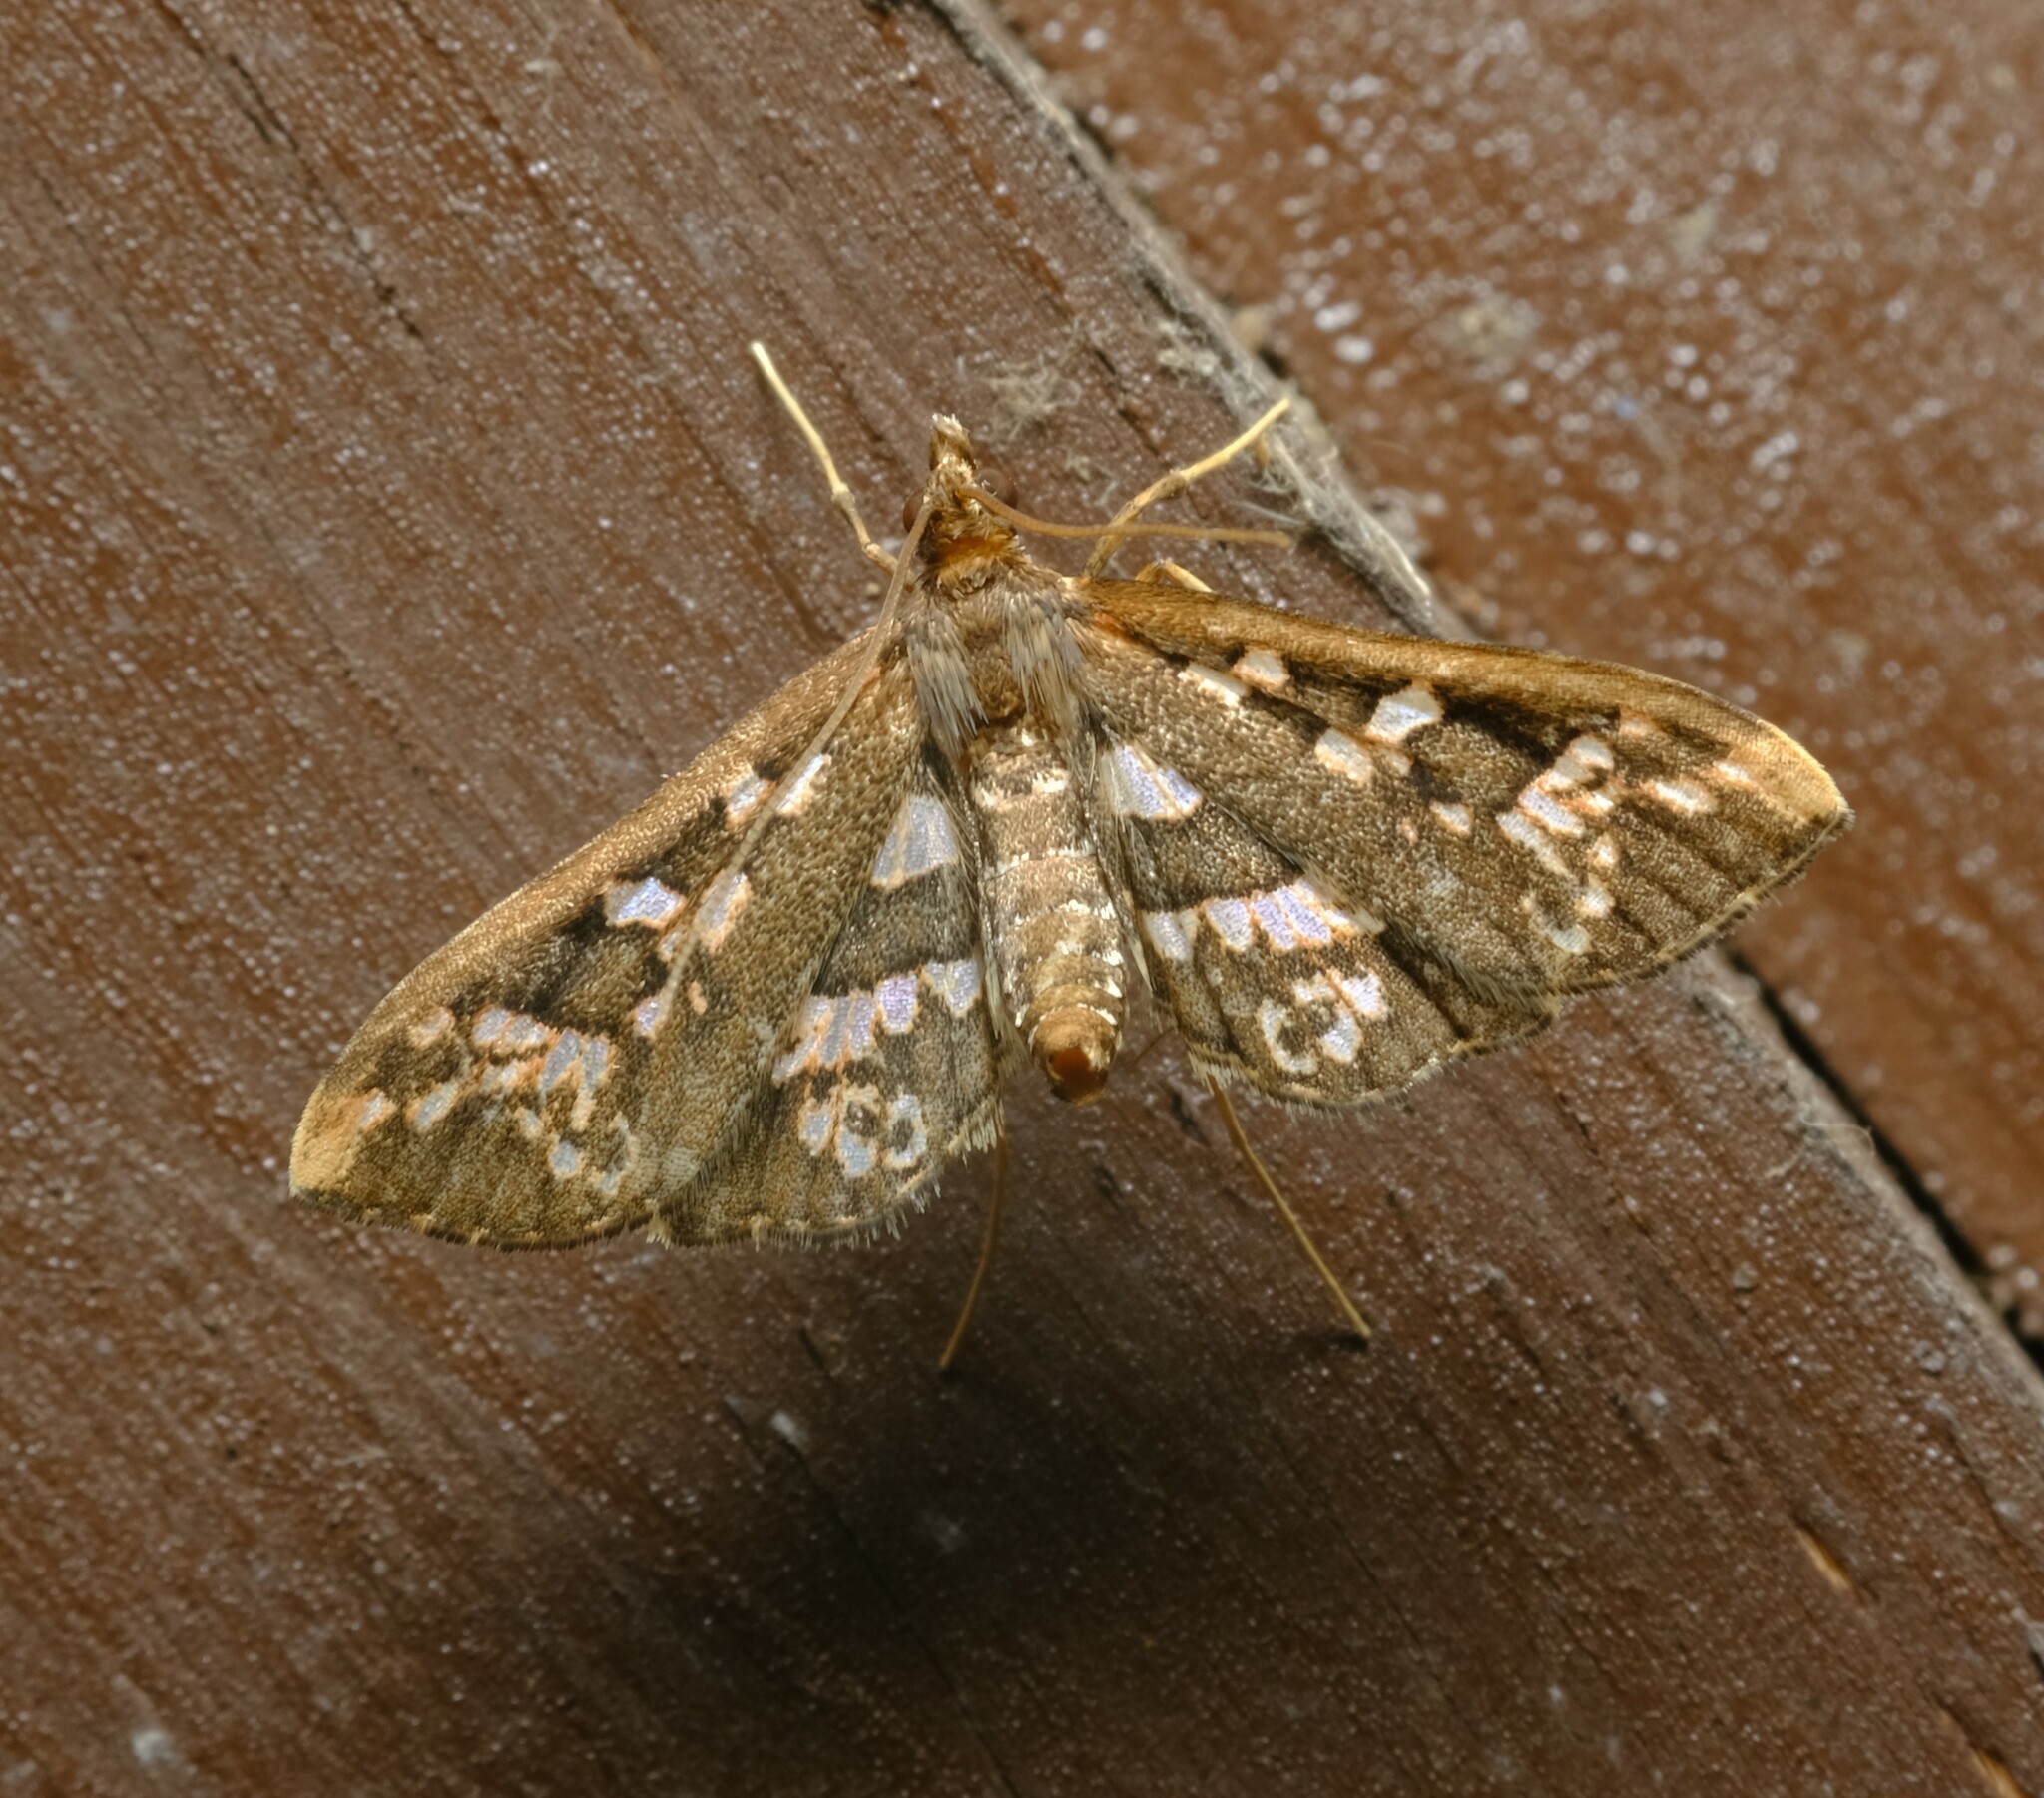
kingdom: Animalia
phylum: Arthropoda
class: Insecta
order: Lepidoptera
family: Crambidae
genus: Ischnurges
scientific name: Ischnurges illustralis
